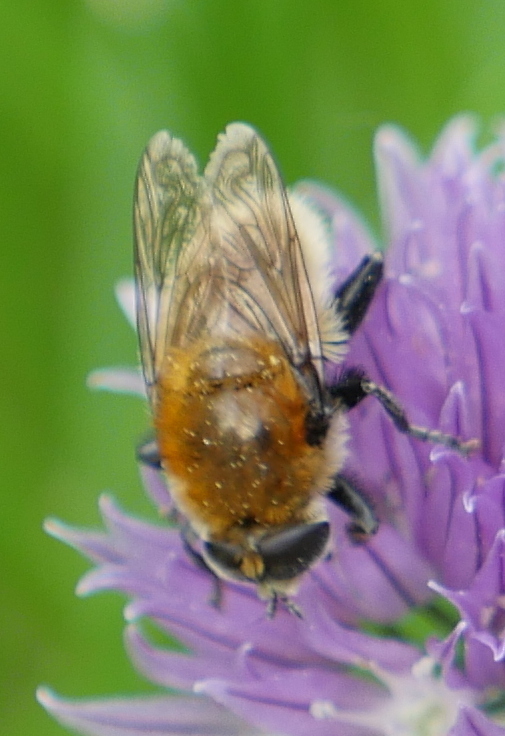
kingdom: Animalia
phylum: Arthropoda
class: Insecta
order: Diptera
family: Syrphidae
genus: Merodon
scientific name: Merodon equestris
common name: Greater bulb-fly
